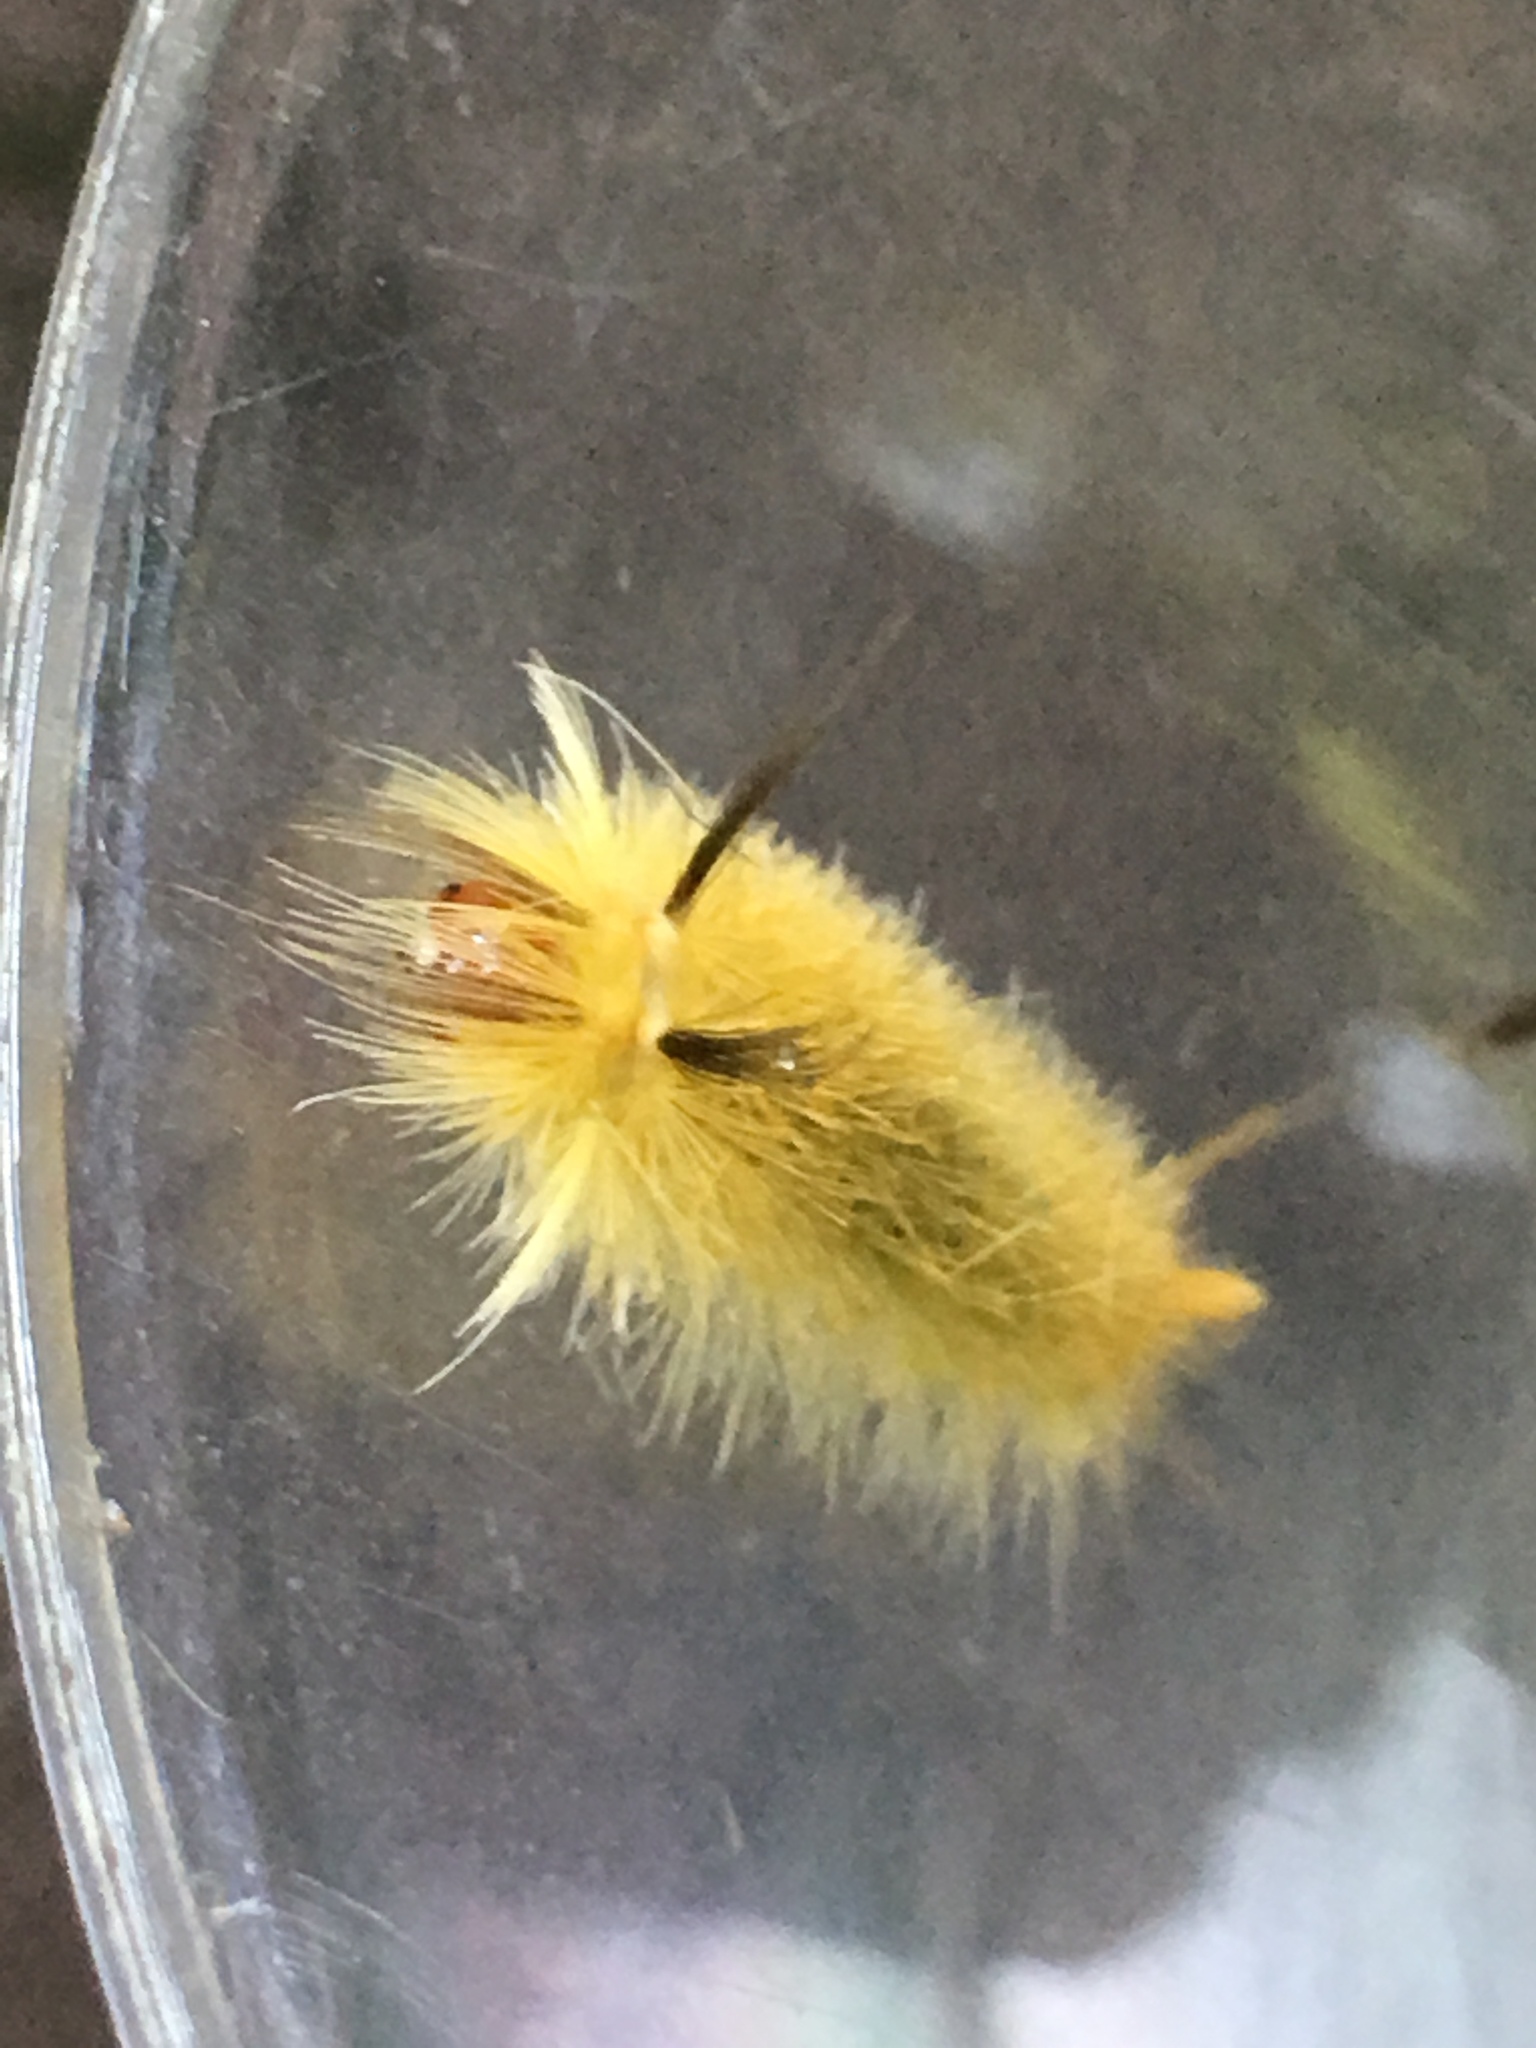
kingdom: Animalia
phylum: Arthropoda
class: Insecta
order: Lepidoptera
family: Erebidae
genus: Halysidota
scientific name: Halysidota tessellaris
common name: Banded tussock moth
